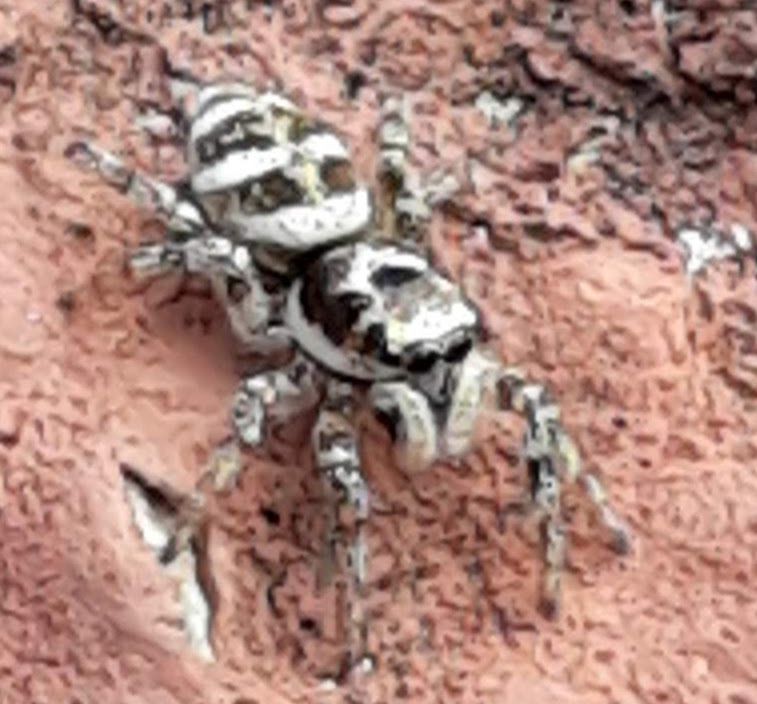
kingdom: Animalia
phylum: Arthropoda
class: Arachnida
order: Araneae
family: Salticidae
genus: Salticus
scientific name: Salticus scenicus
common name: Zebra jumper
